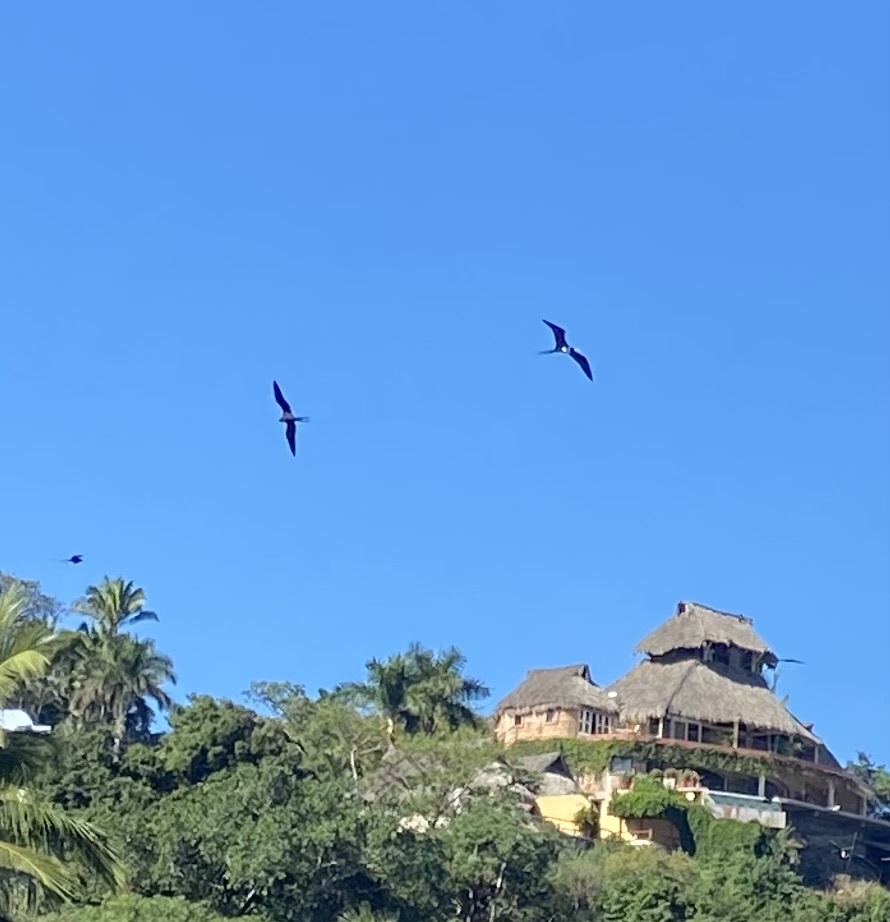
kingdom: Animalia
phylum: Chordata
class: Aves
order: Suliformes
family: Fregatidae
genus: Fregata
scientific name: Fregata magnificens
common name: Magnificent frigatebird
